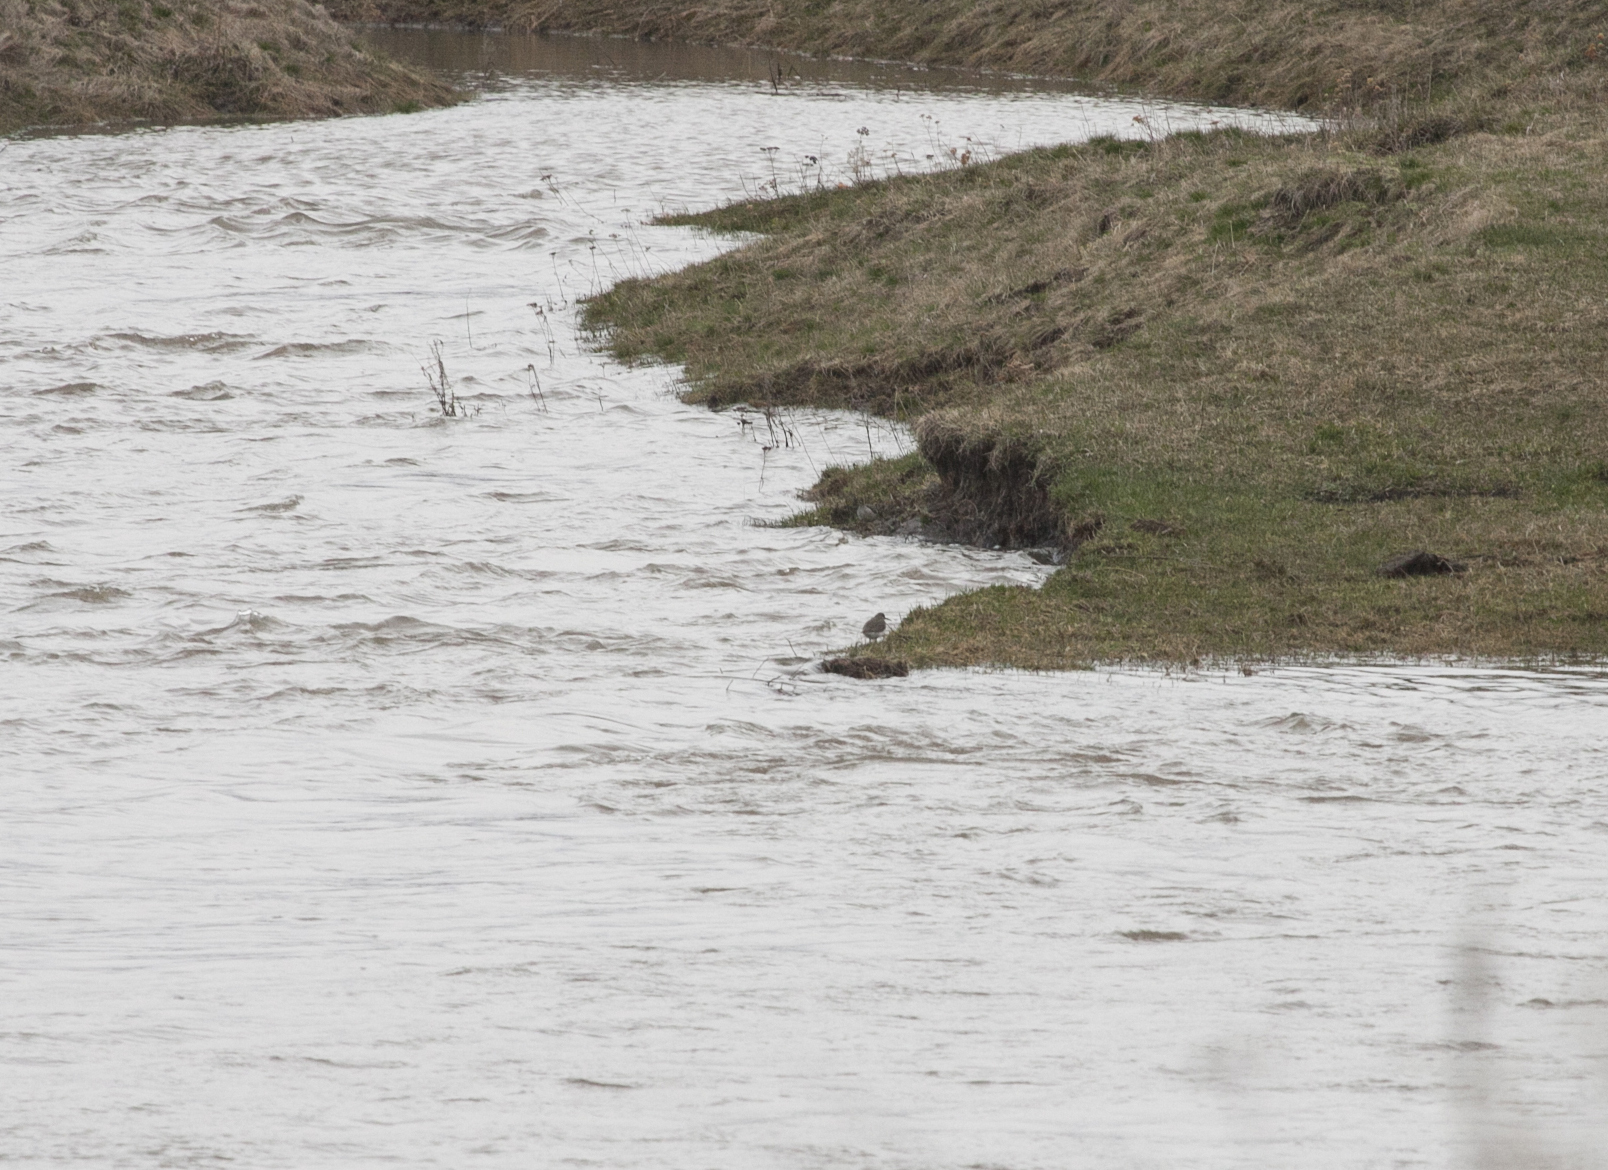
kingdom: Animalia
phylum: Chordata
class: Aves
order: Charadriiformes
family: Scolopacidae
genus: Tringa
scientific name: Tringa ochropus
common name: Green sandpiper
